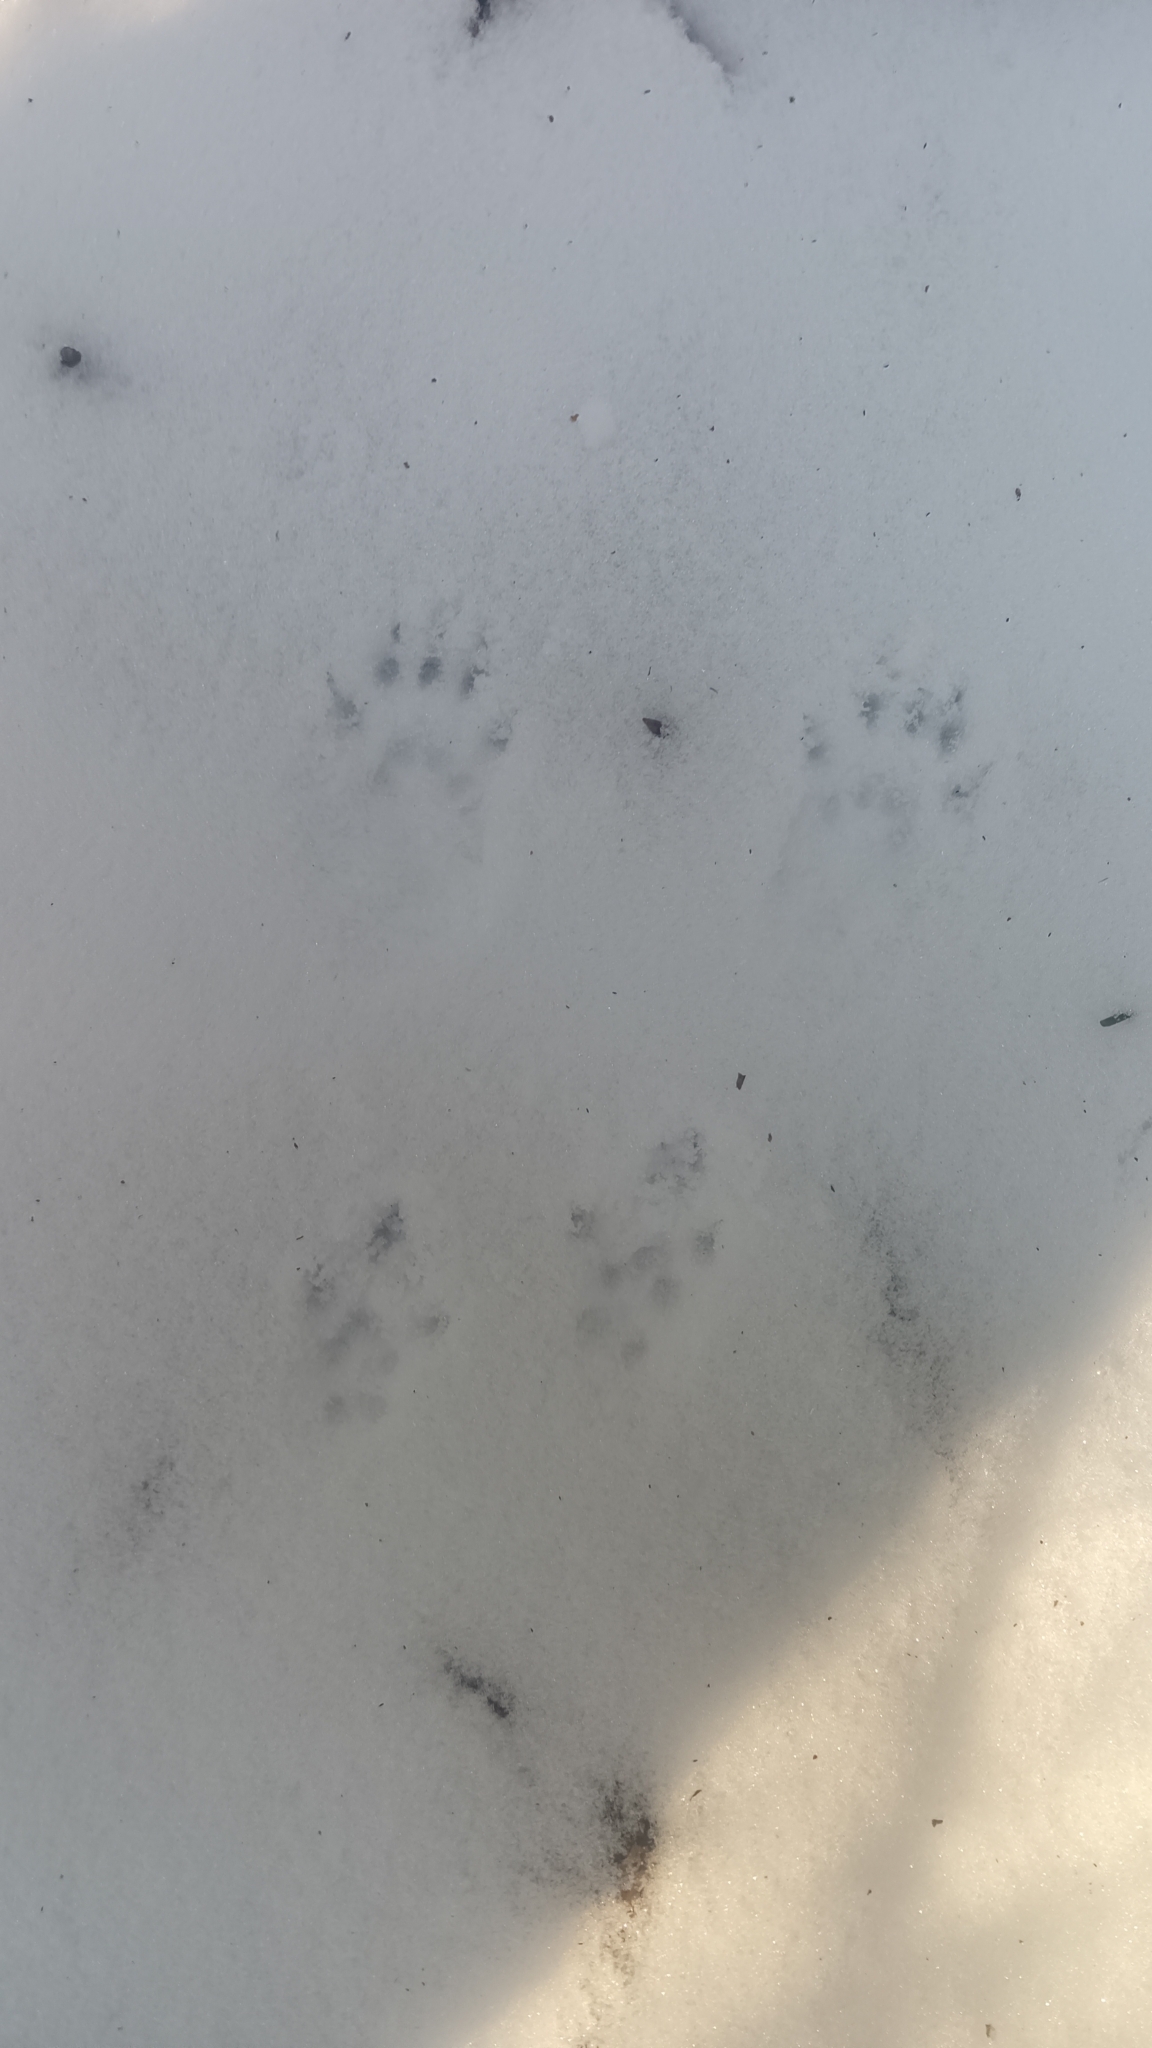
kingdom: Animalia
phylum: Chordata
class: Mammalia
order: Rodentia
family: Sciuridae
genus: Sciurus
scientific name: Sciurus
